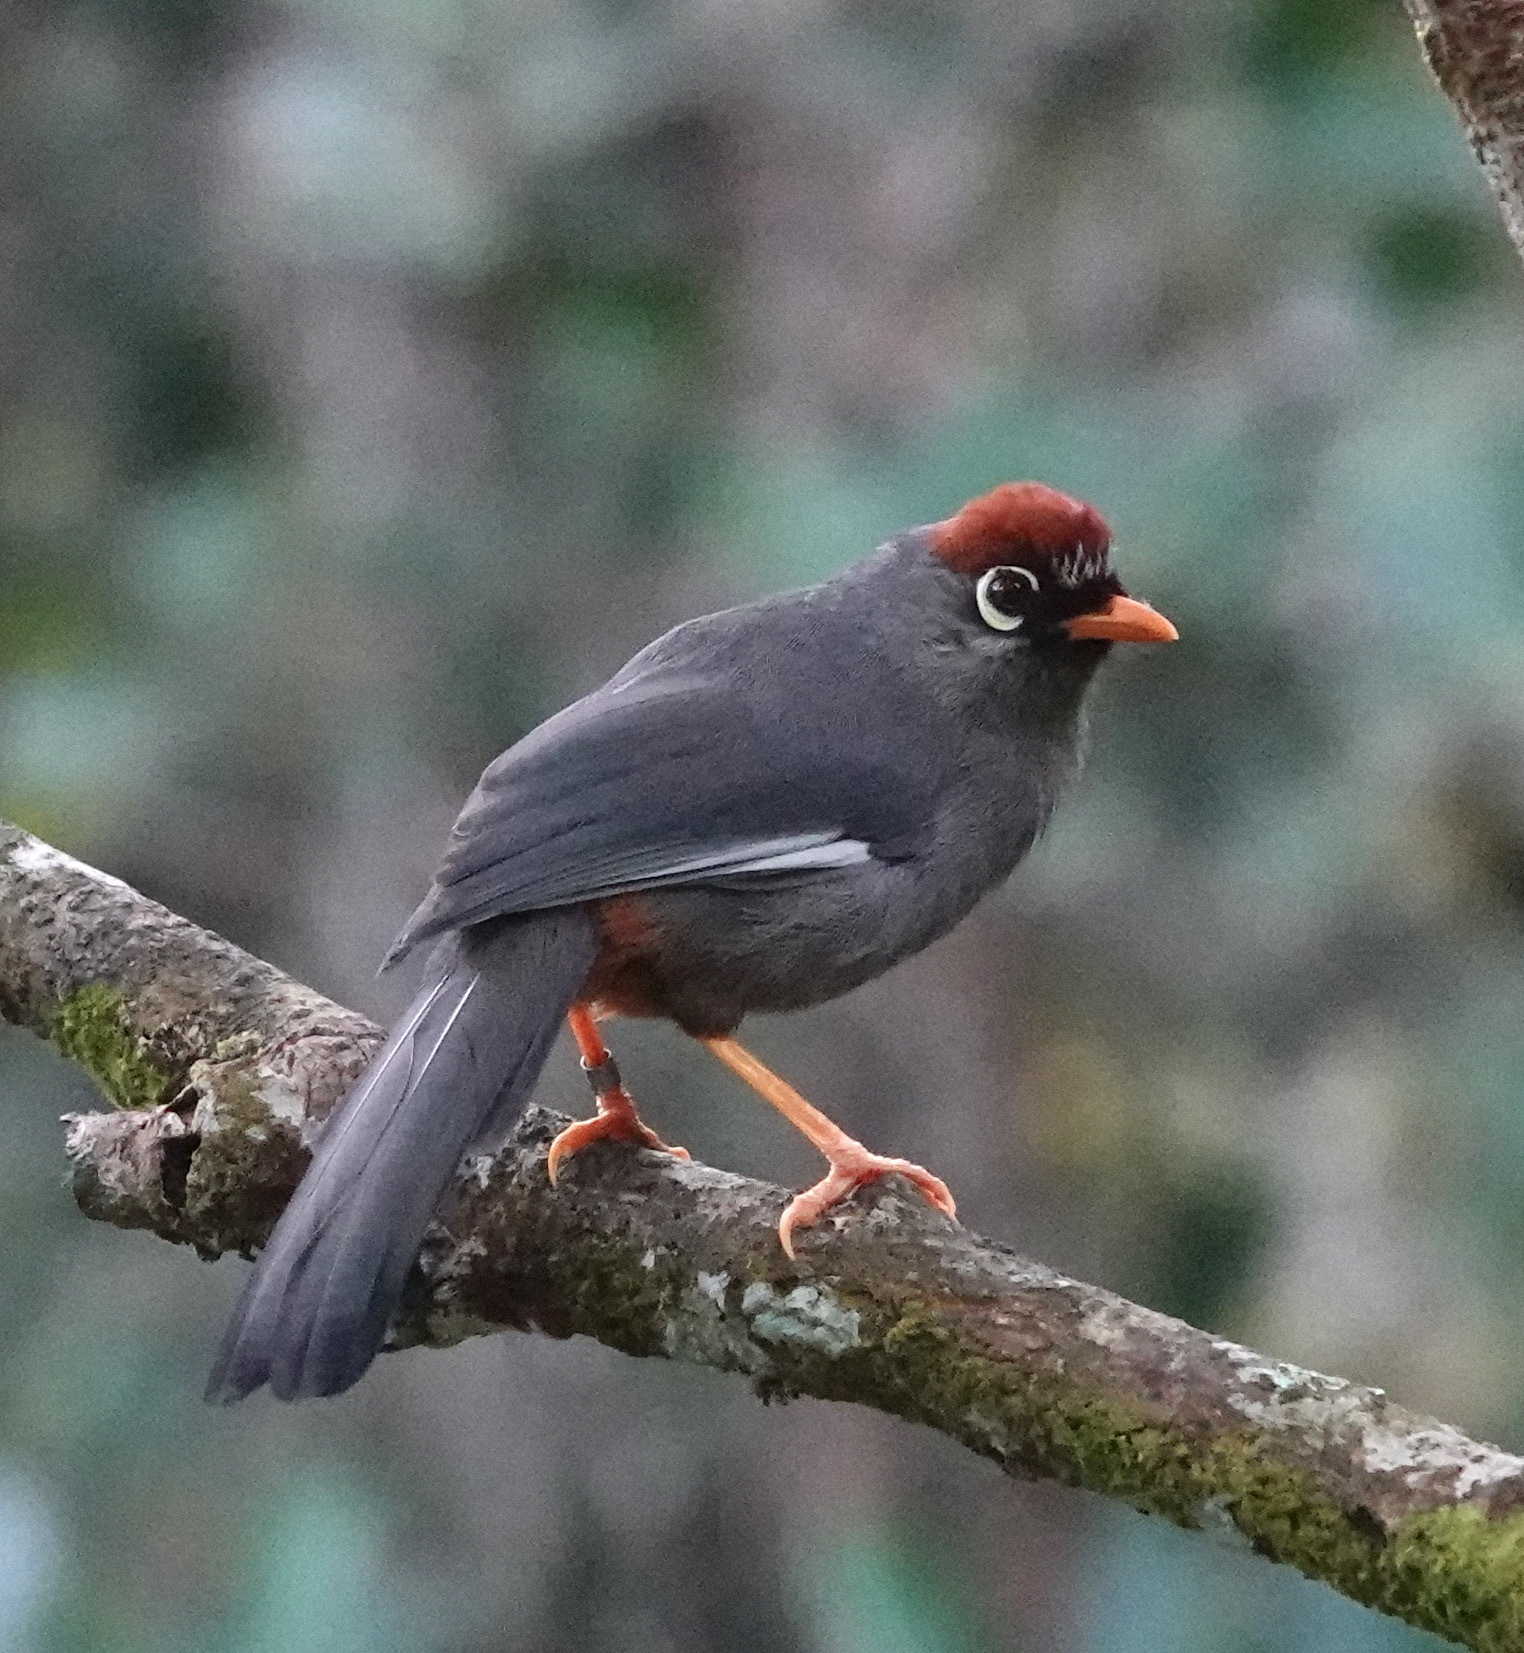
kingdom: Animalia
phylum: Chordata
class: Aves
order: Passeriformes
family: Leiothrichidae
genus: Garrulax
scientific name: Garrulax mitratus
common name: Chestnut-capped laughingthrush
